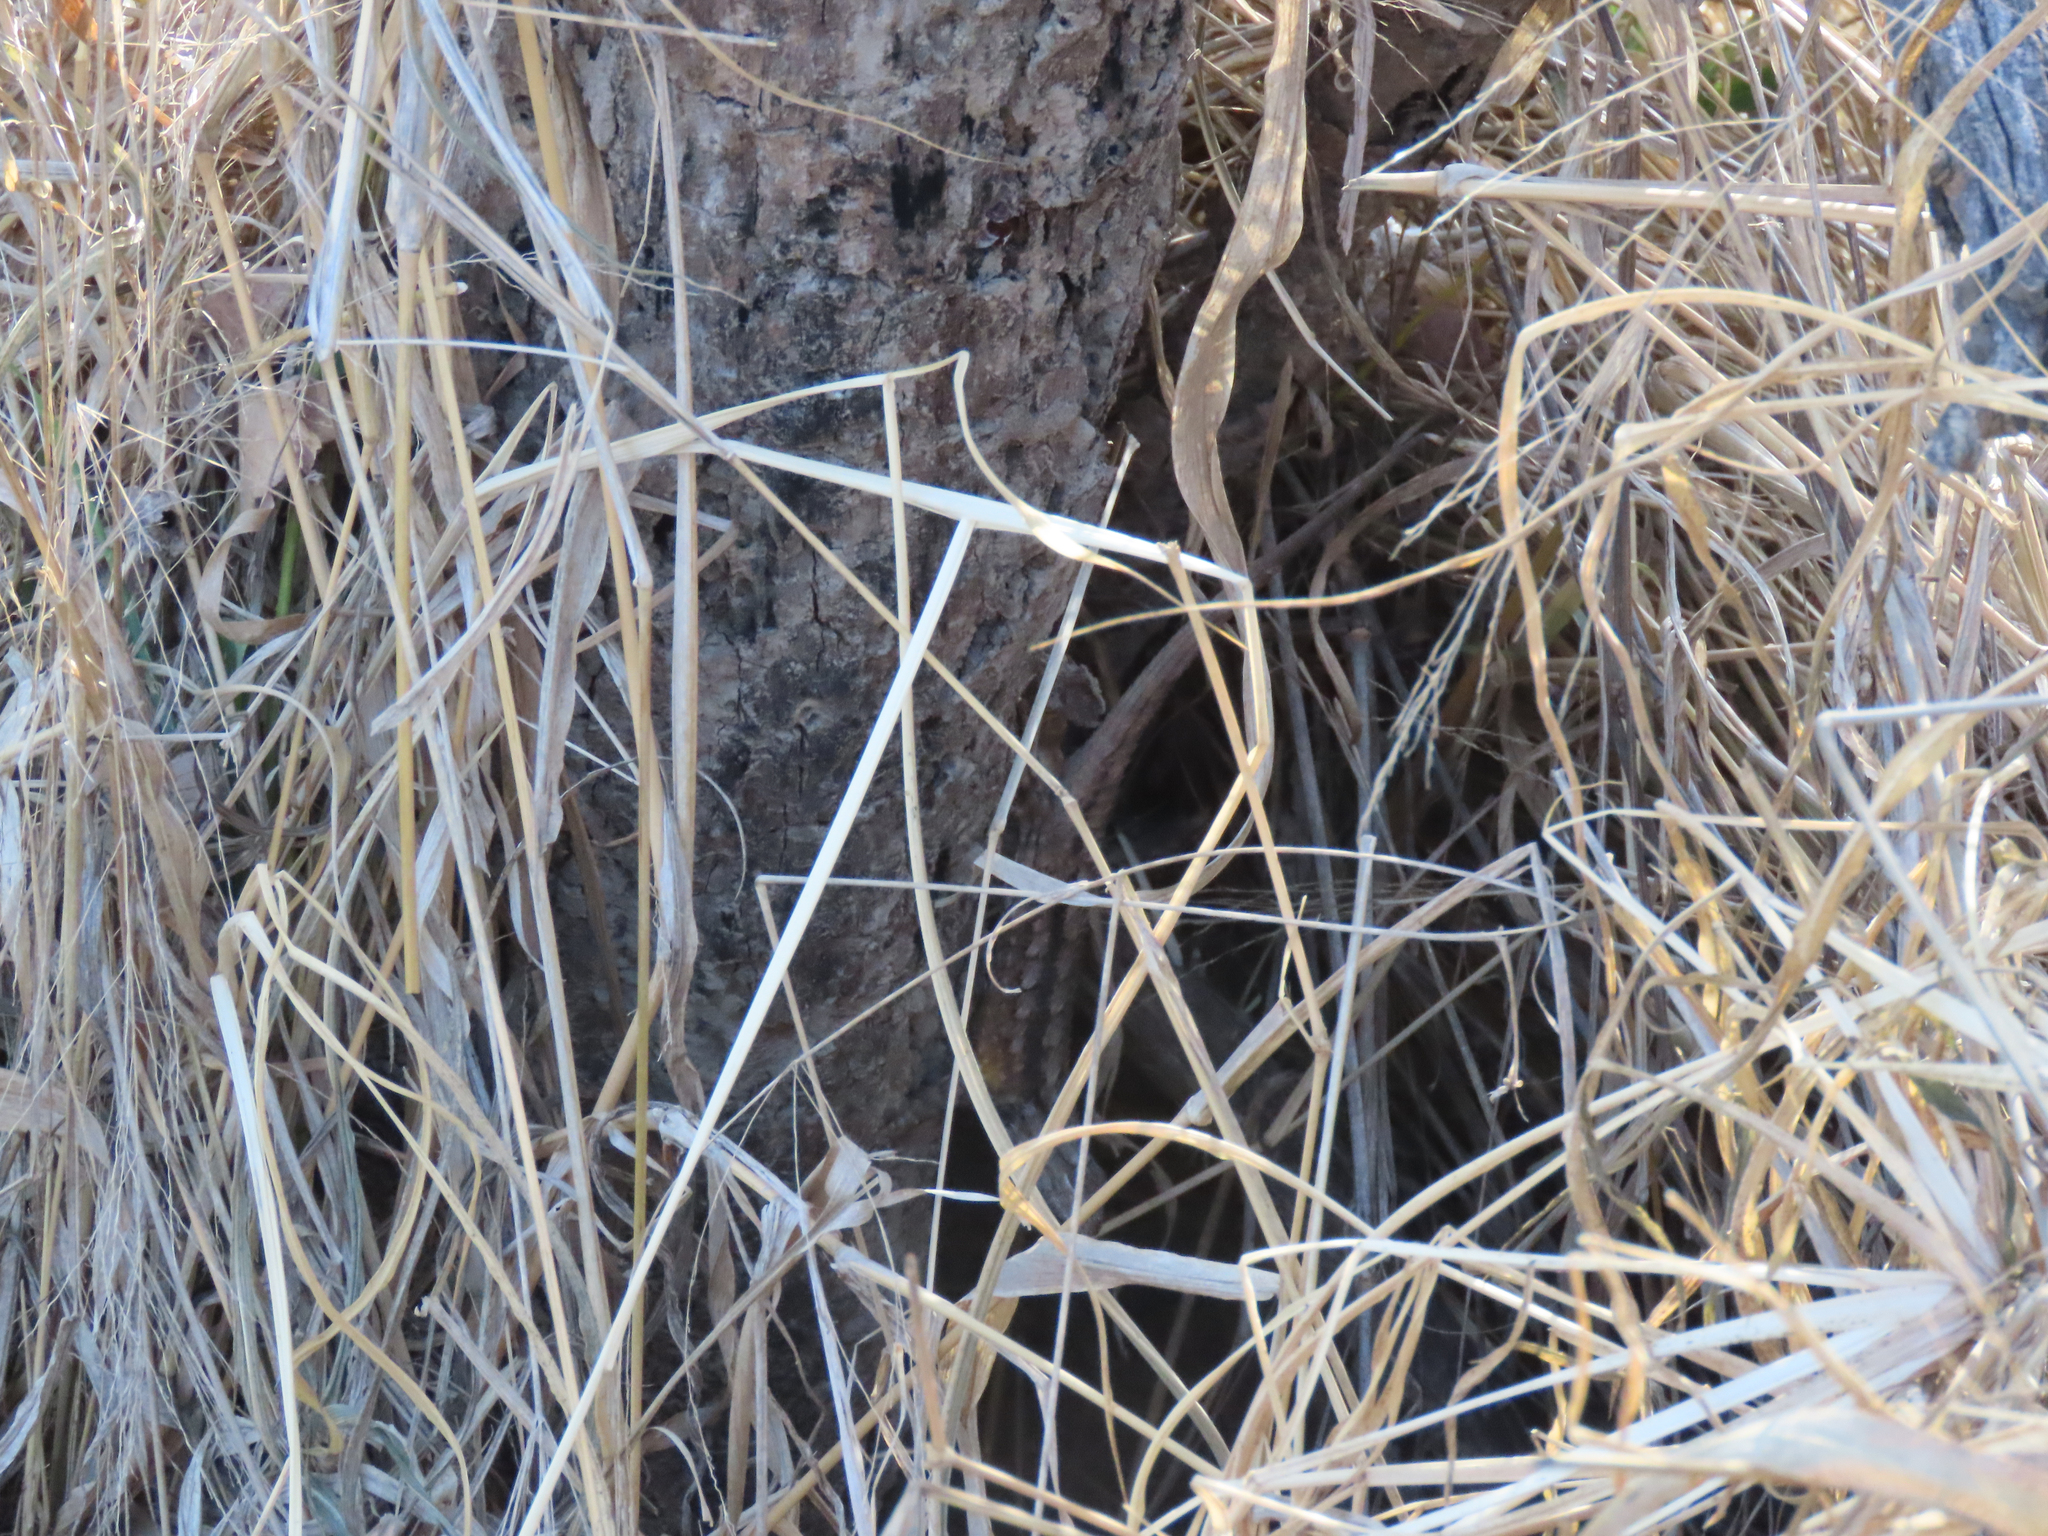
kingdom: Animalia
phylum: Chordata
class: Squamata
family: Phrynosomatidae
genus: Sceloporus
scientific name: Sceloporus olivaceus
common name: Texas spiny lizard
